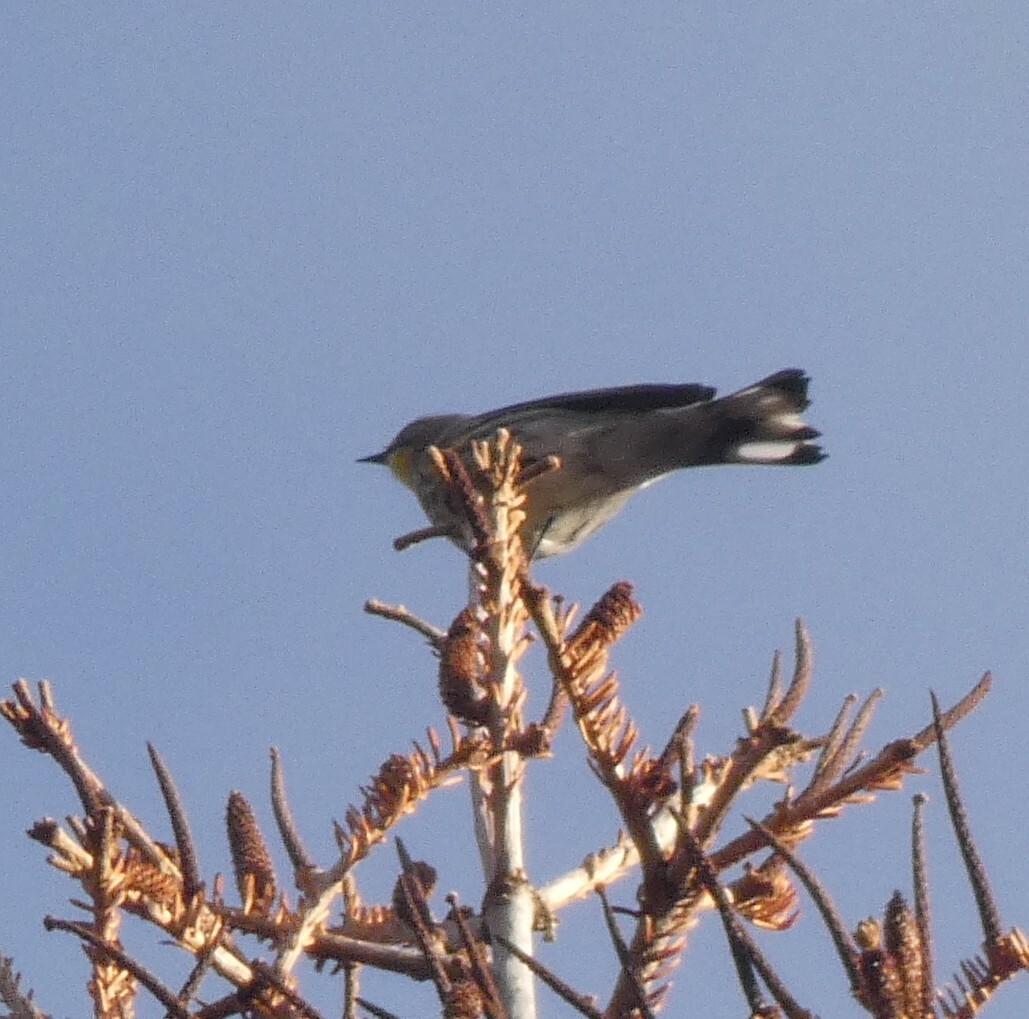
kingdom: Animalia
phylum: Chordata
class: Aves
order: Passeriformes
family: Parulidae
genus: Setophaga
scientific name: Setophaga coronata
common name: Myrtle warbler
